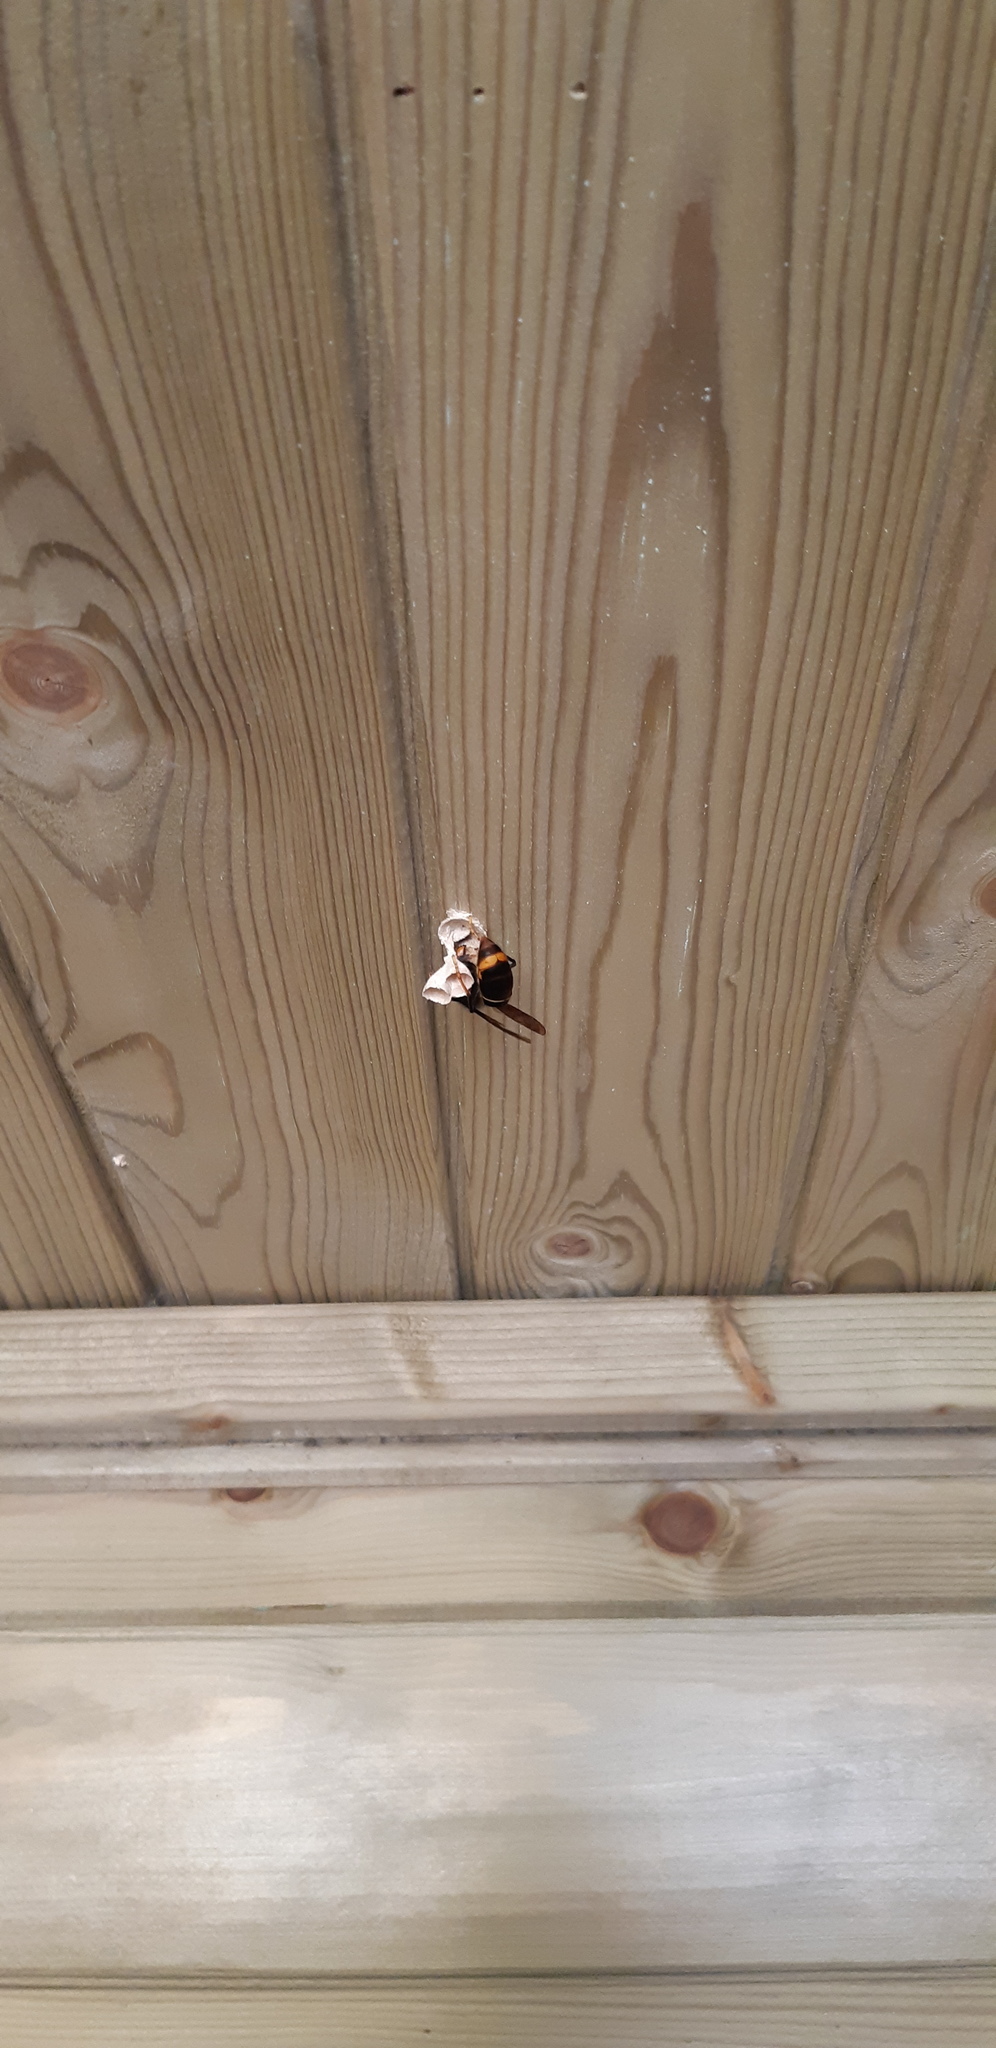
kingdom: Animalia
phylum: Arthropoda
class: Insecta
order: Hymenoptera
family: Vespidae
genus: Vespa
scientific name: Vespa velutina
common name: Asian hornet
